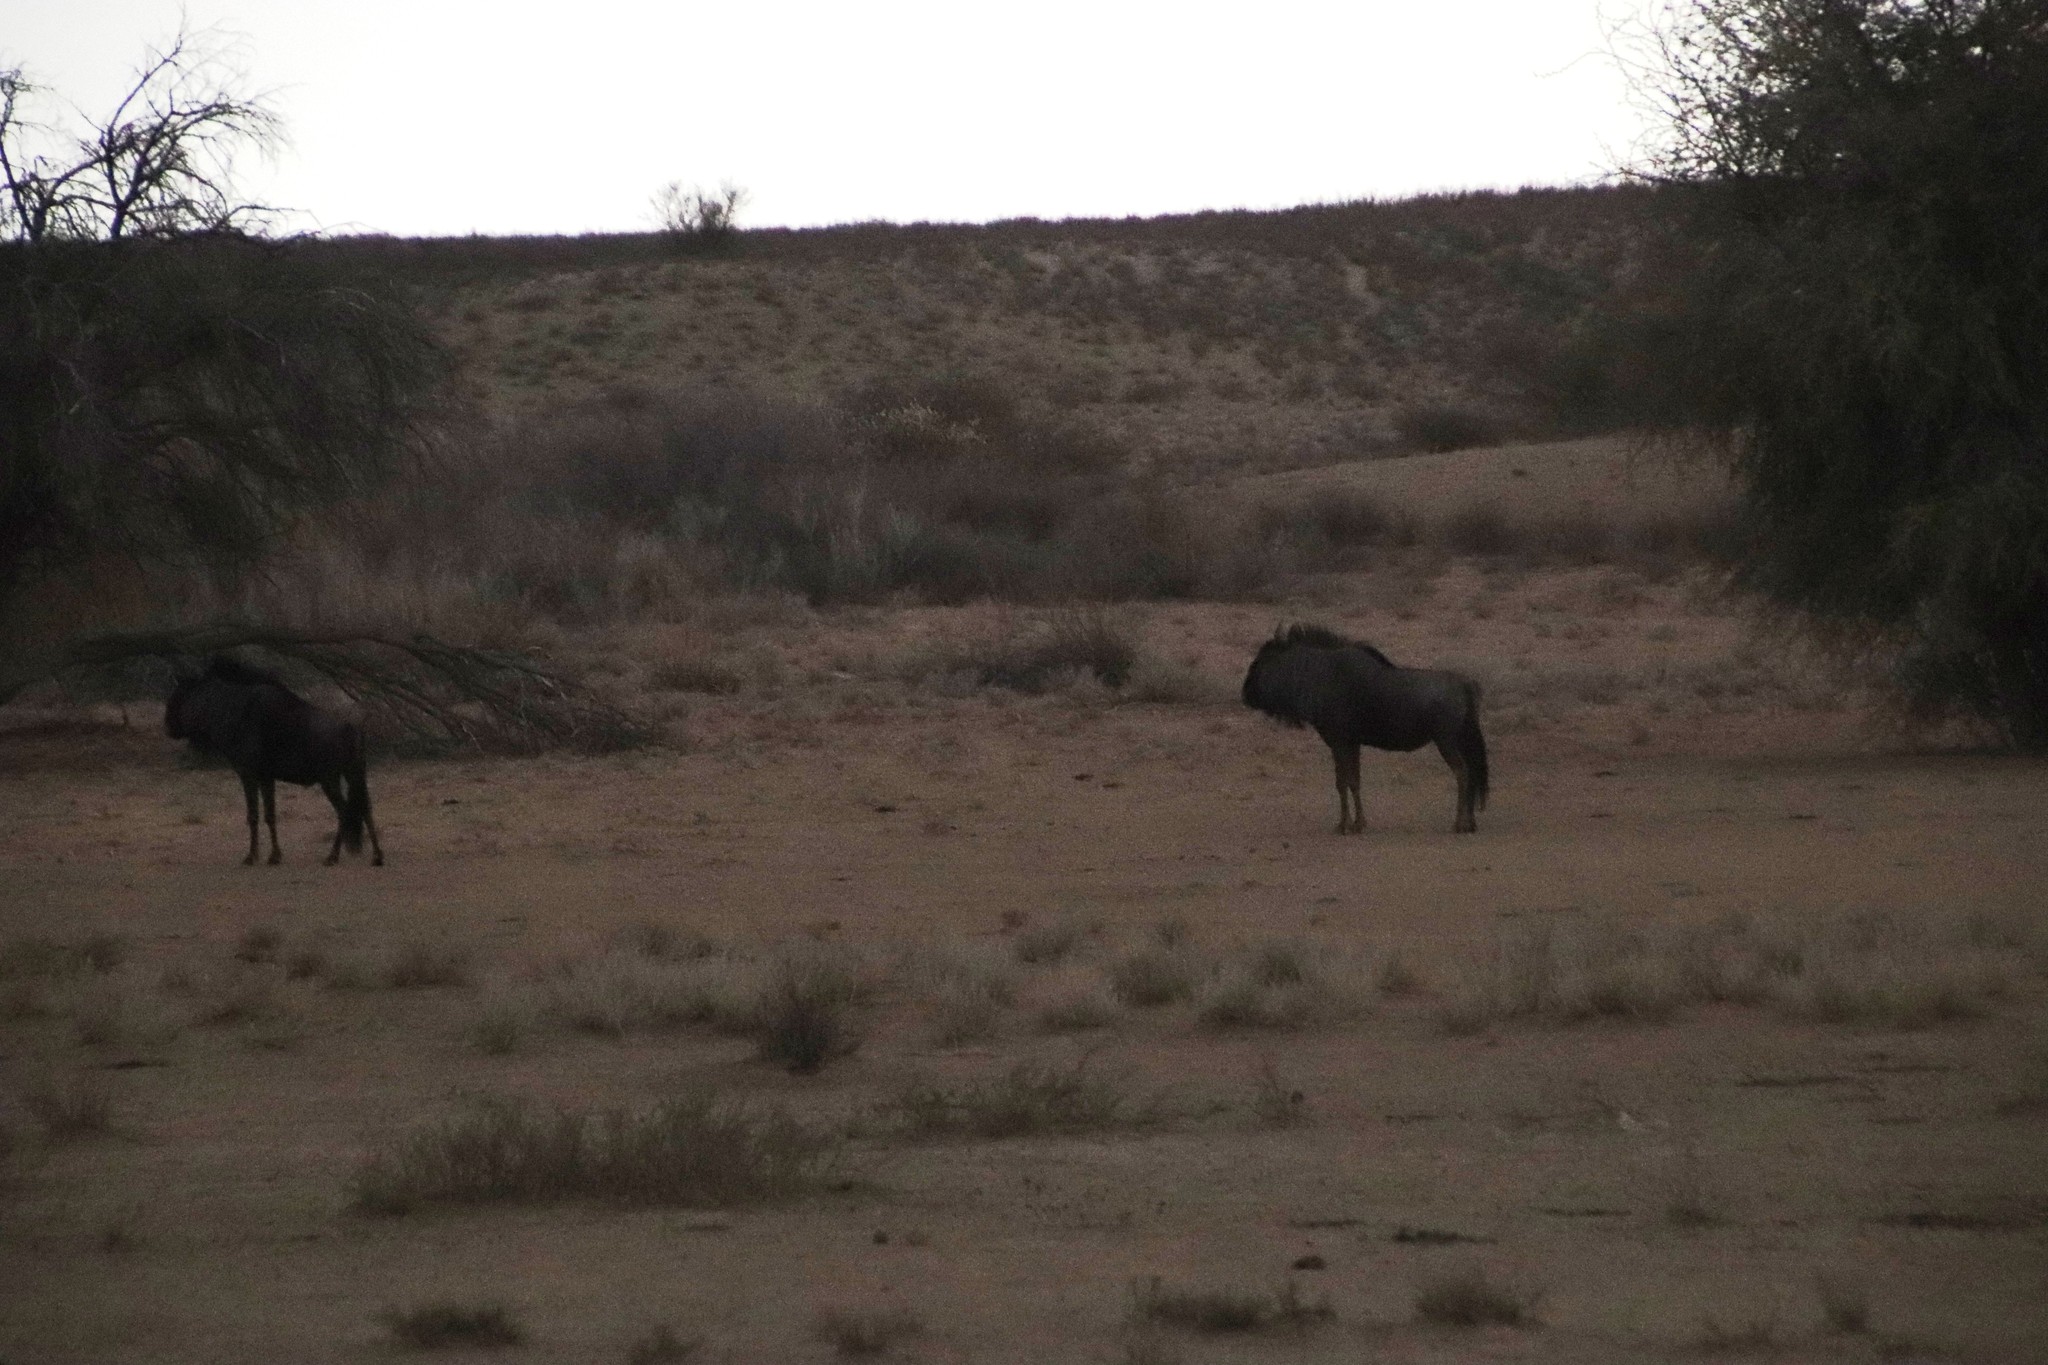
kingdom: Animalia
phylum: Chordata
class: Mammalia
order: Artiodactyla
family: Bovidae
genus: Connochaetes
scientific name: Connochaetes taurinus
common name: Blue wildebeest
